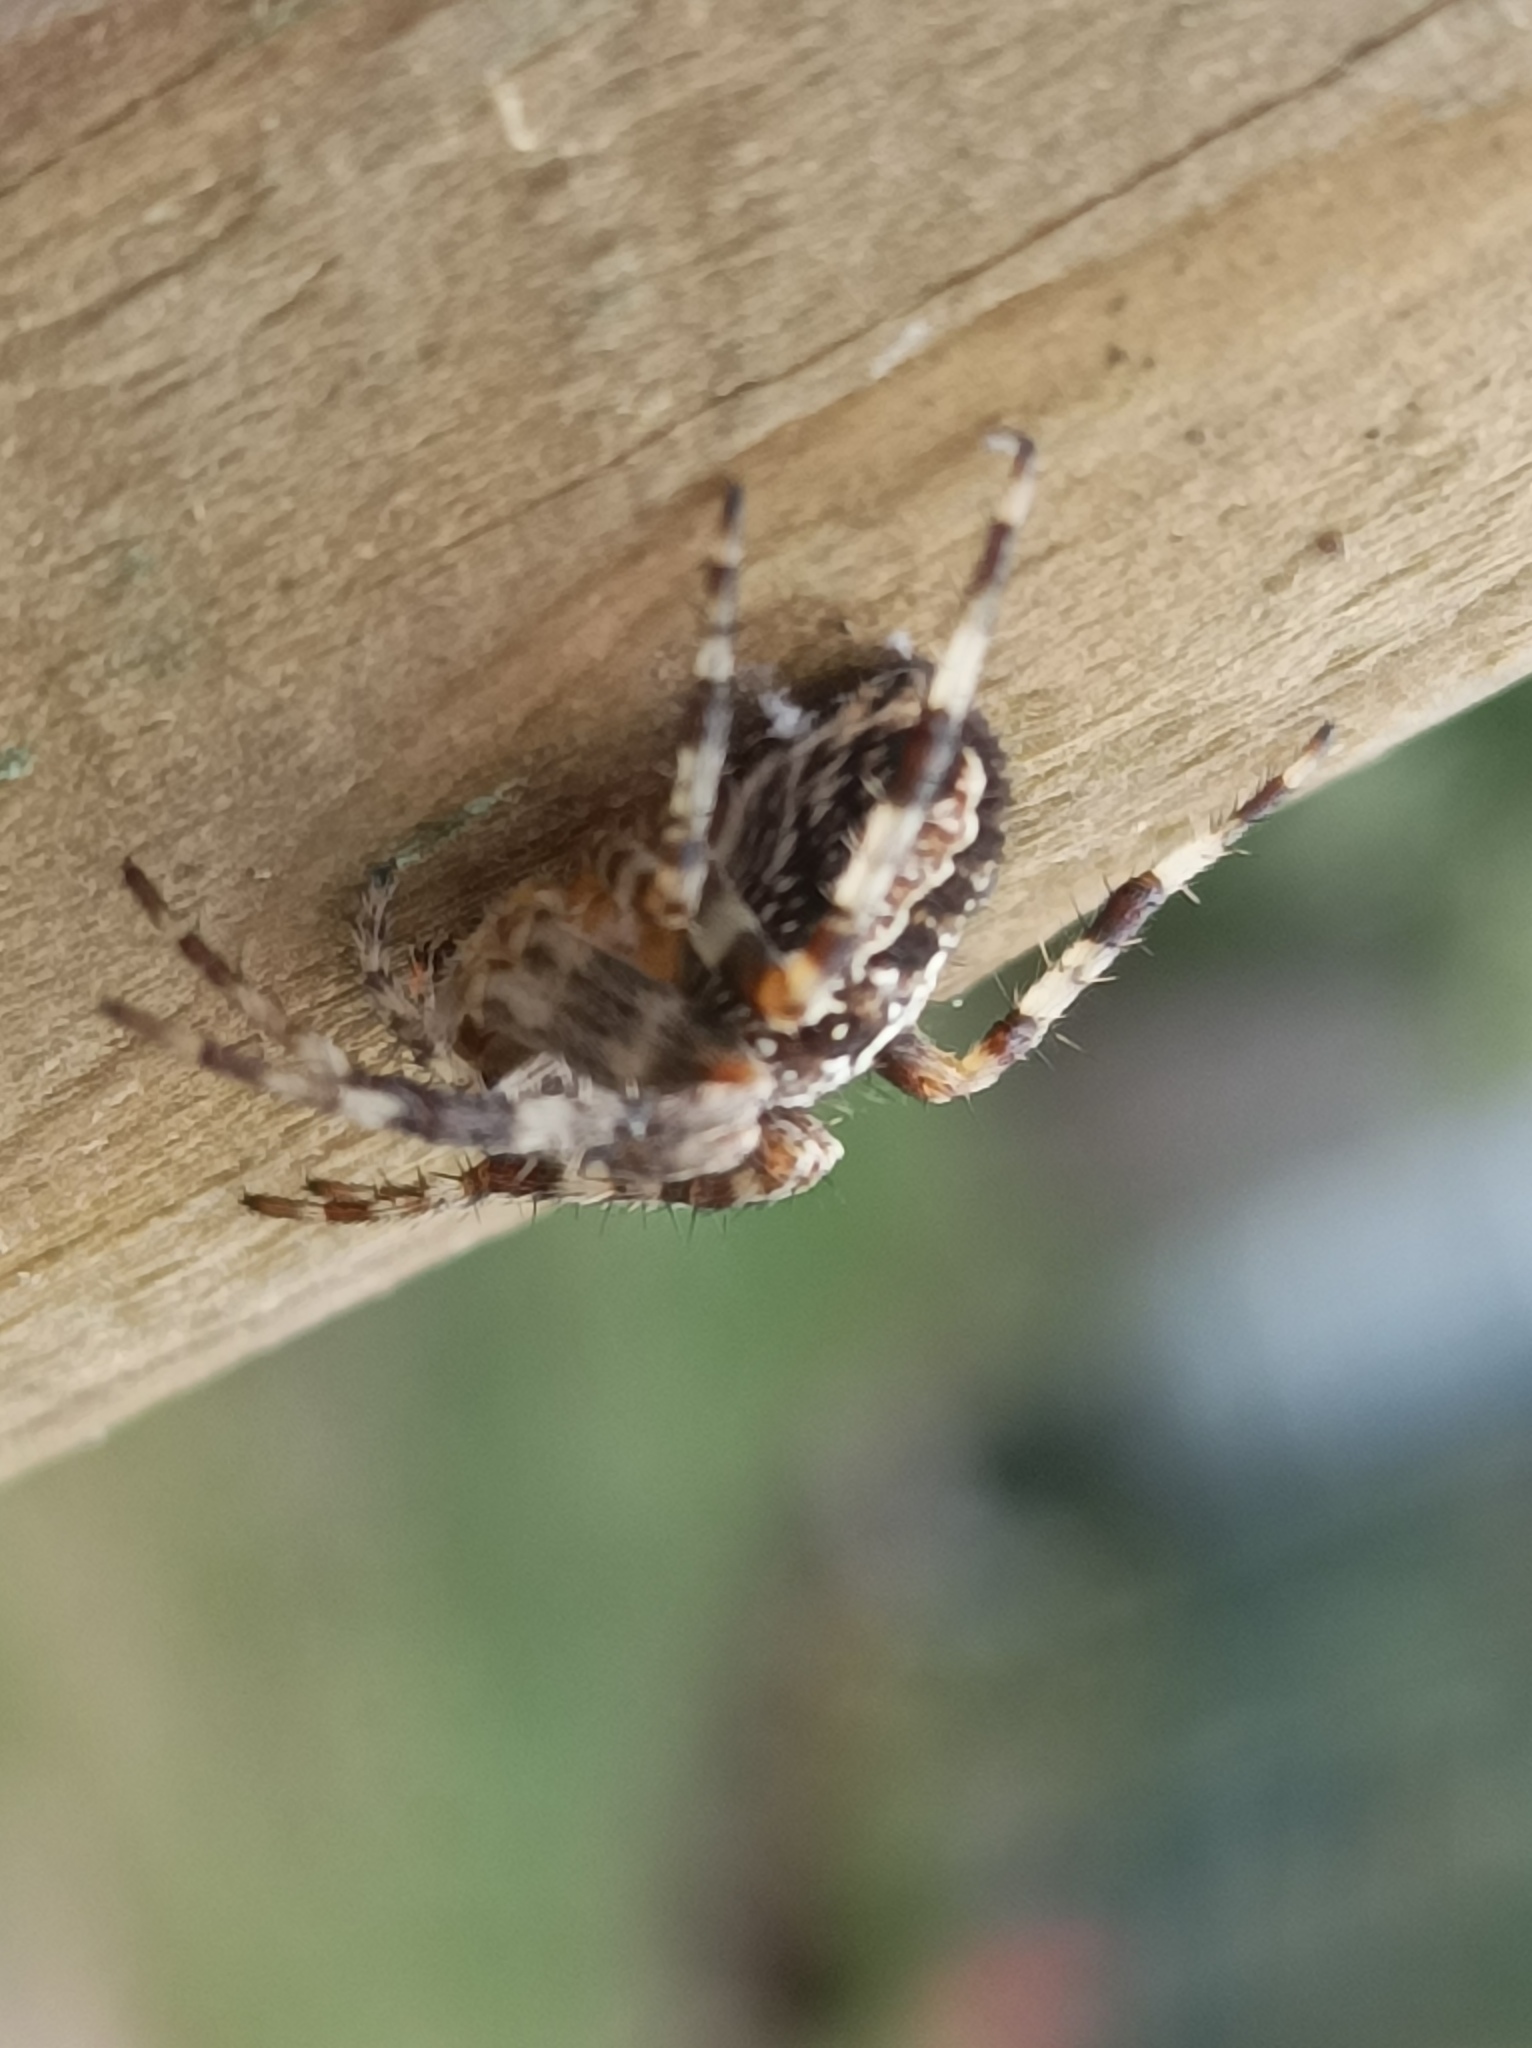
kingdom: Animalia
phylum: Arthropoda
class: Arachnida
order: Araneae
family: Araneidae
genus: Araneus
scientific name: Araneus diadematus
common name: Cross orbweaver
